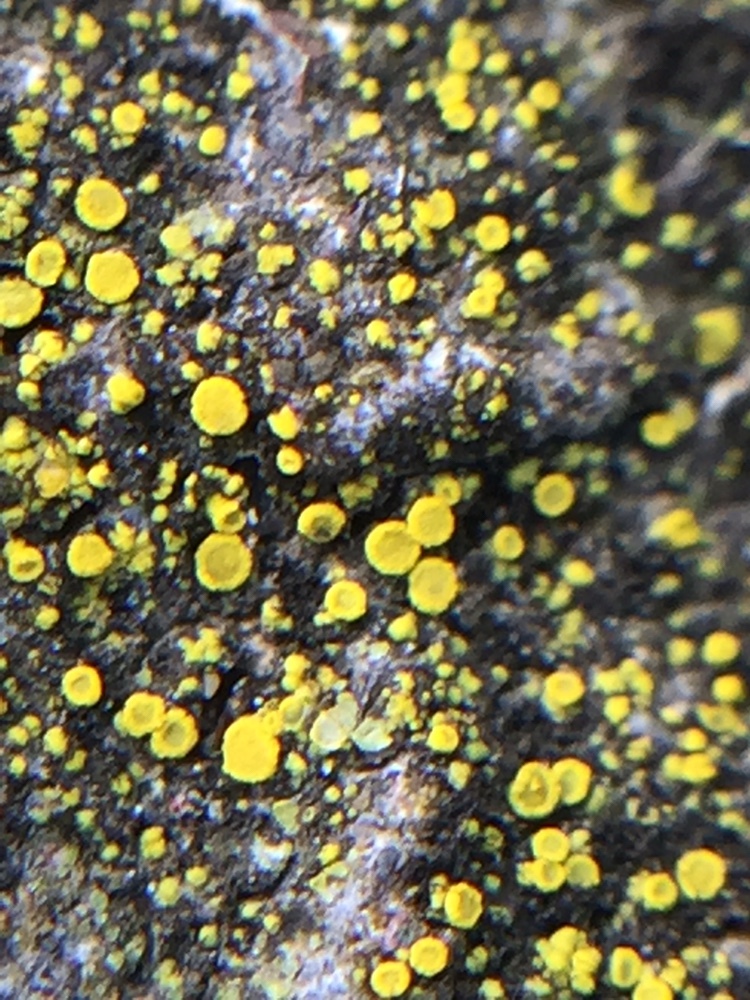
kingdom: Fungi
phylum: Ascomycota
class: Candelariomycetes
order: Candelariales
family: Candelariaceae
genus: Candelariella
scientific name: Candelariella vitellina
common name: Common goldspeck
